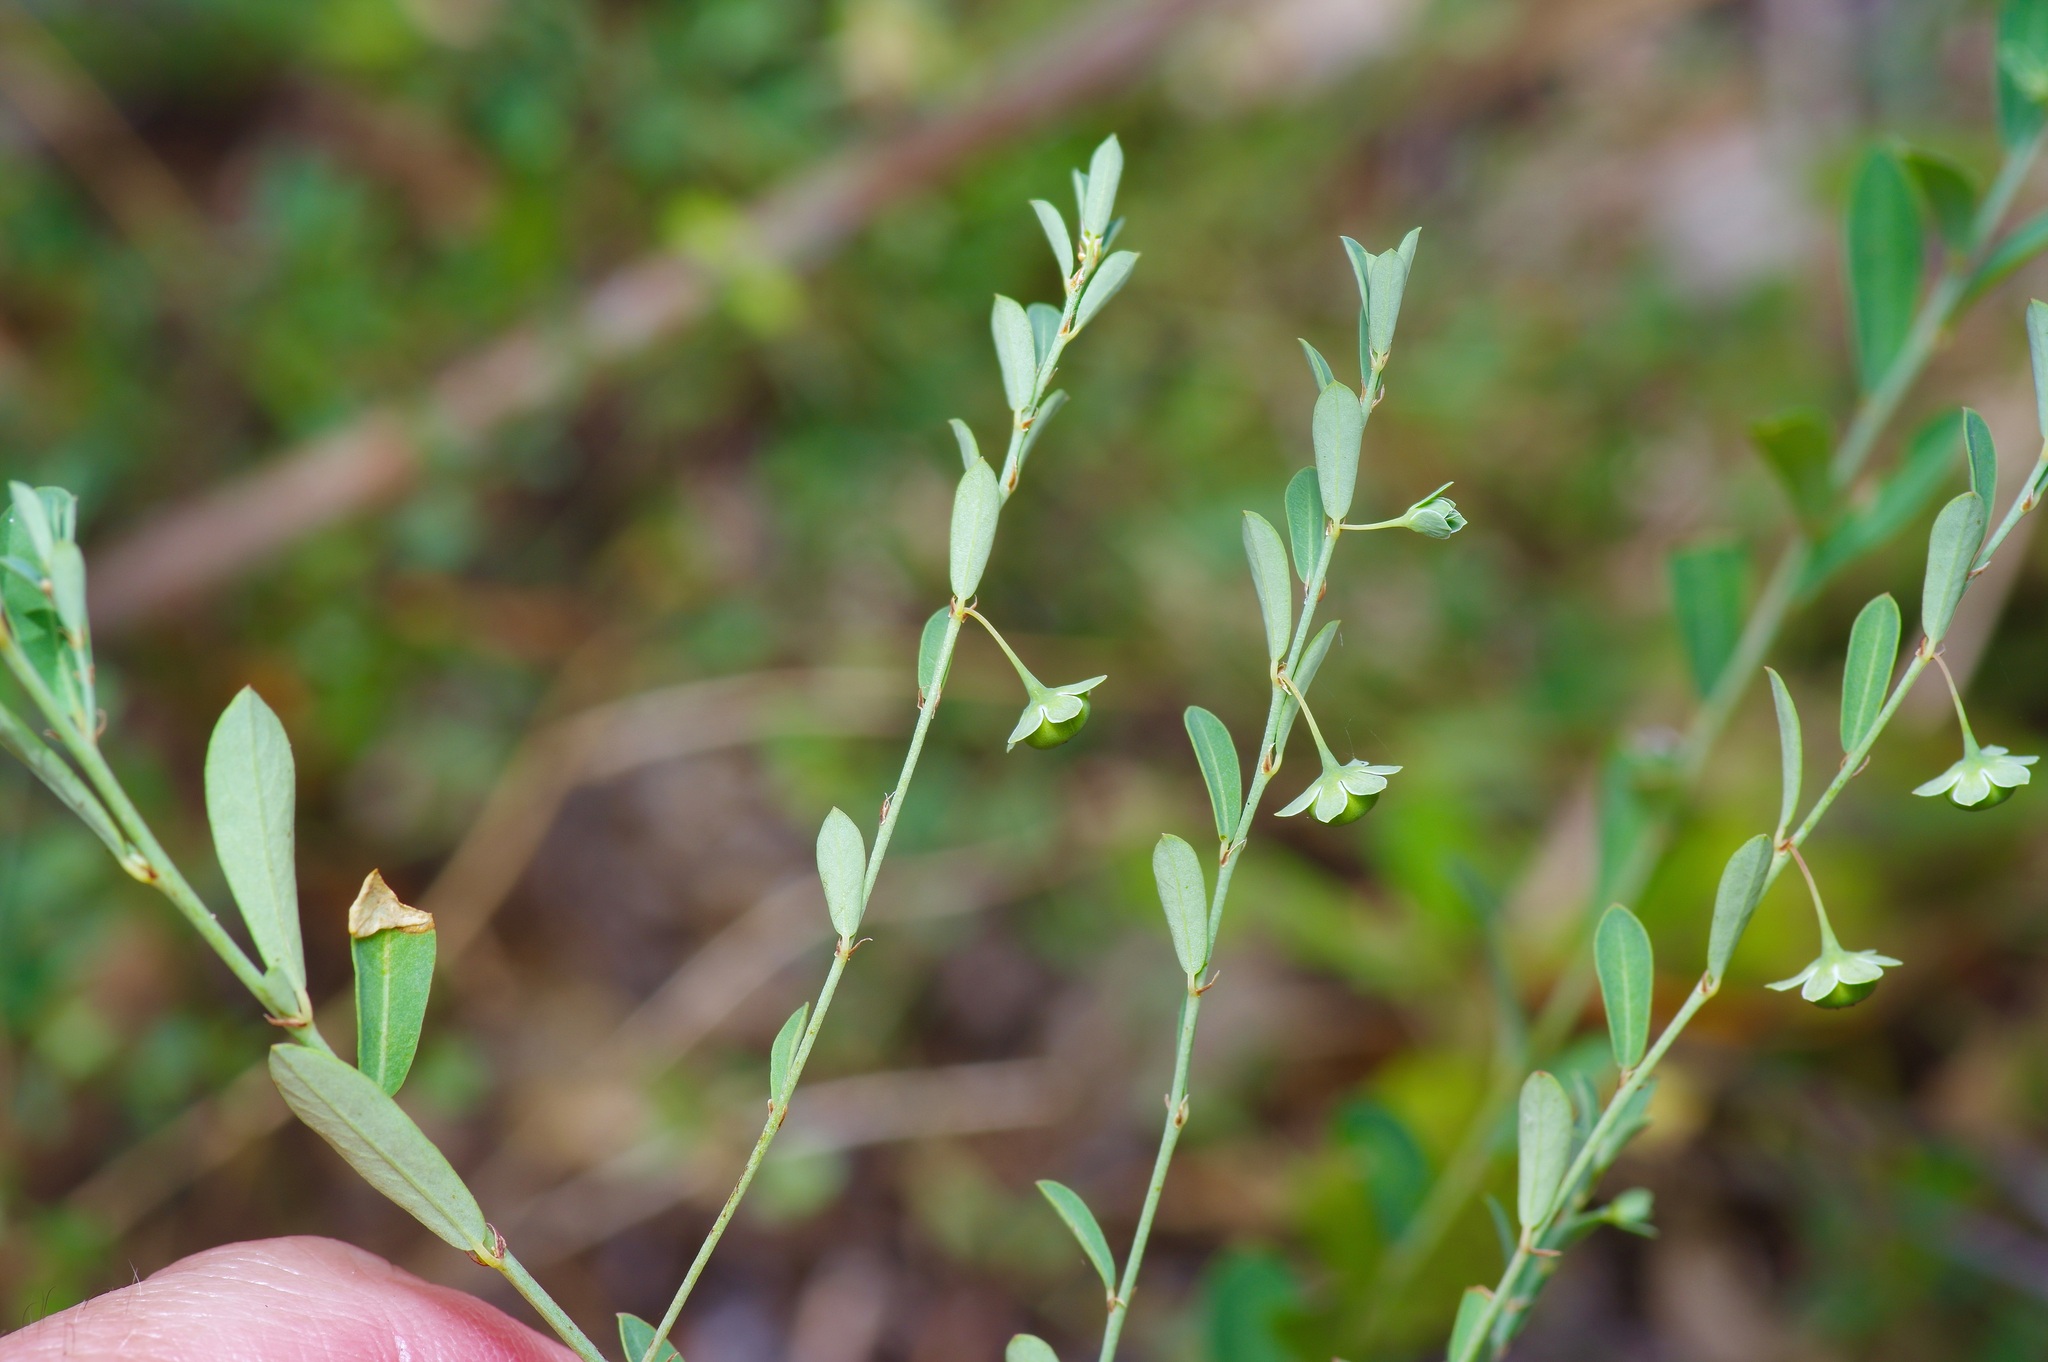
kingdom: Plantae
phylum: Tracheophyta
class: Magnoliopsida
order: Malpighiales
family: Phyllanthaceae
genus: Phyllanthus
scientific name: Phyllanthus polygonoides
